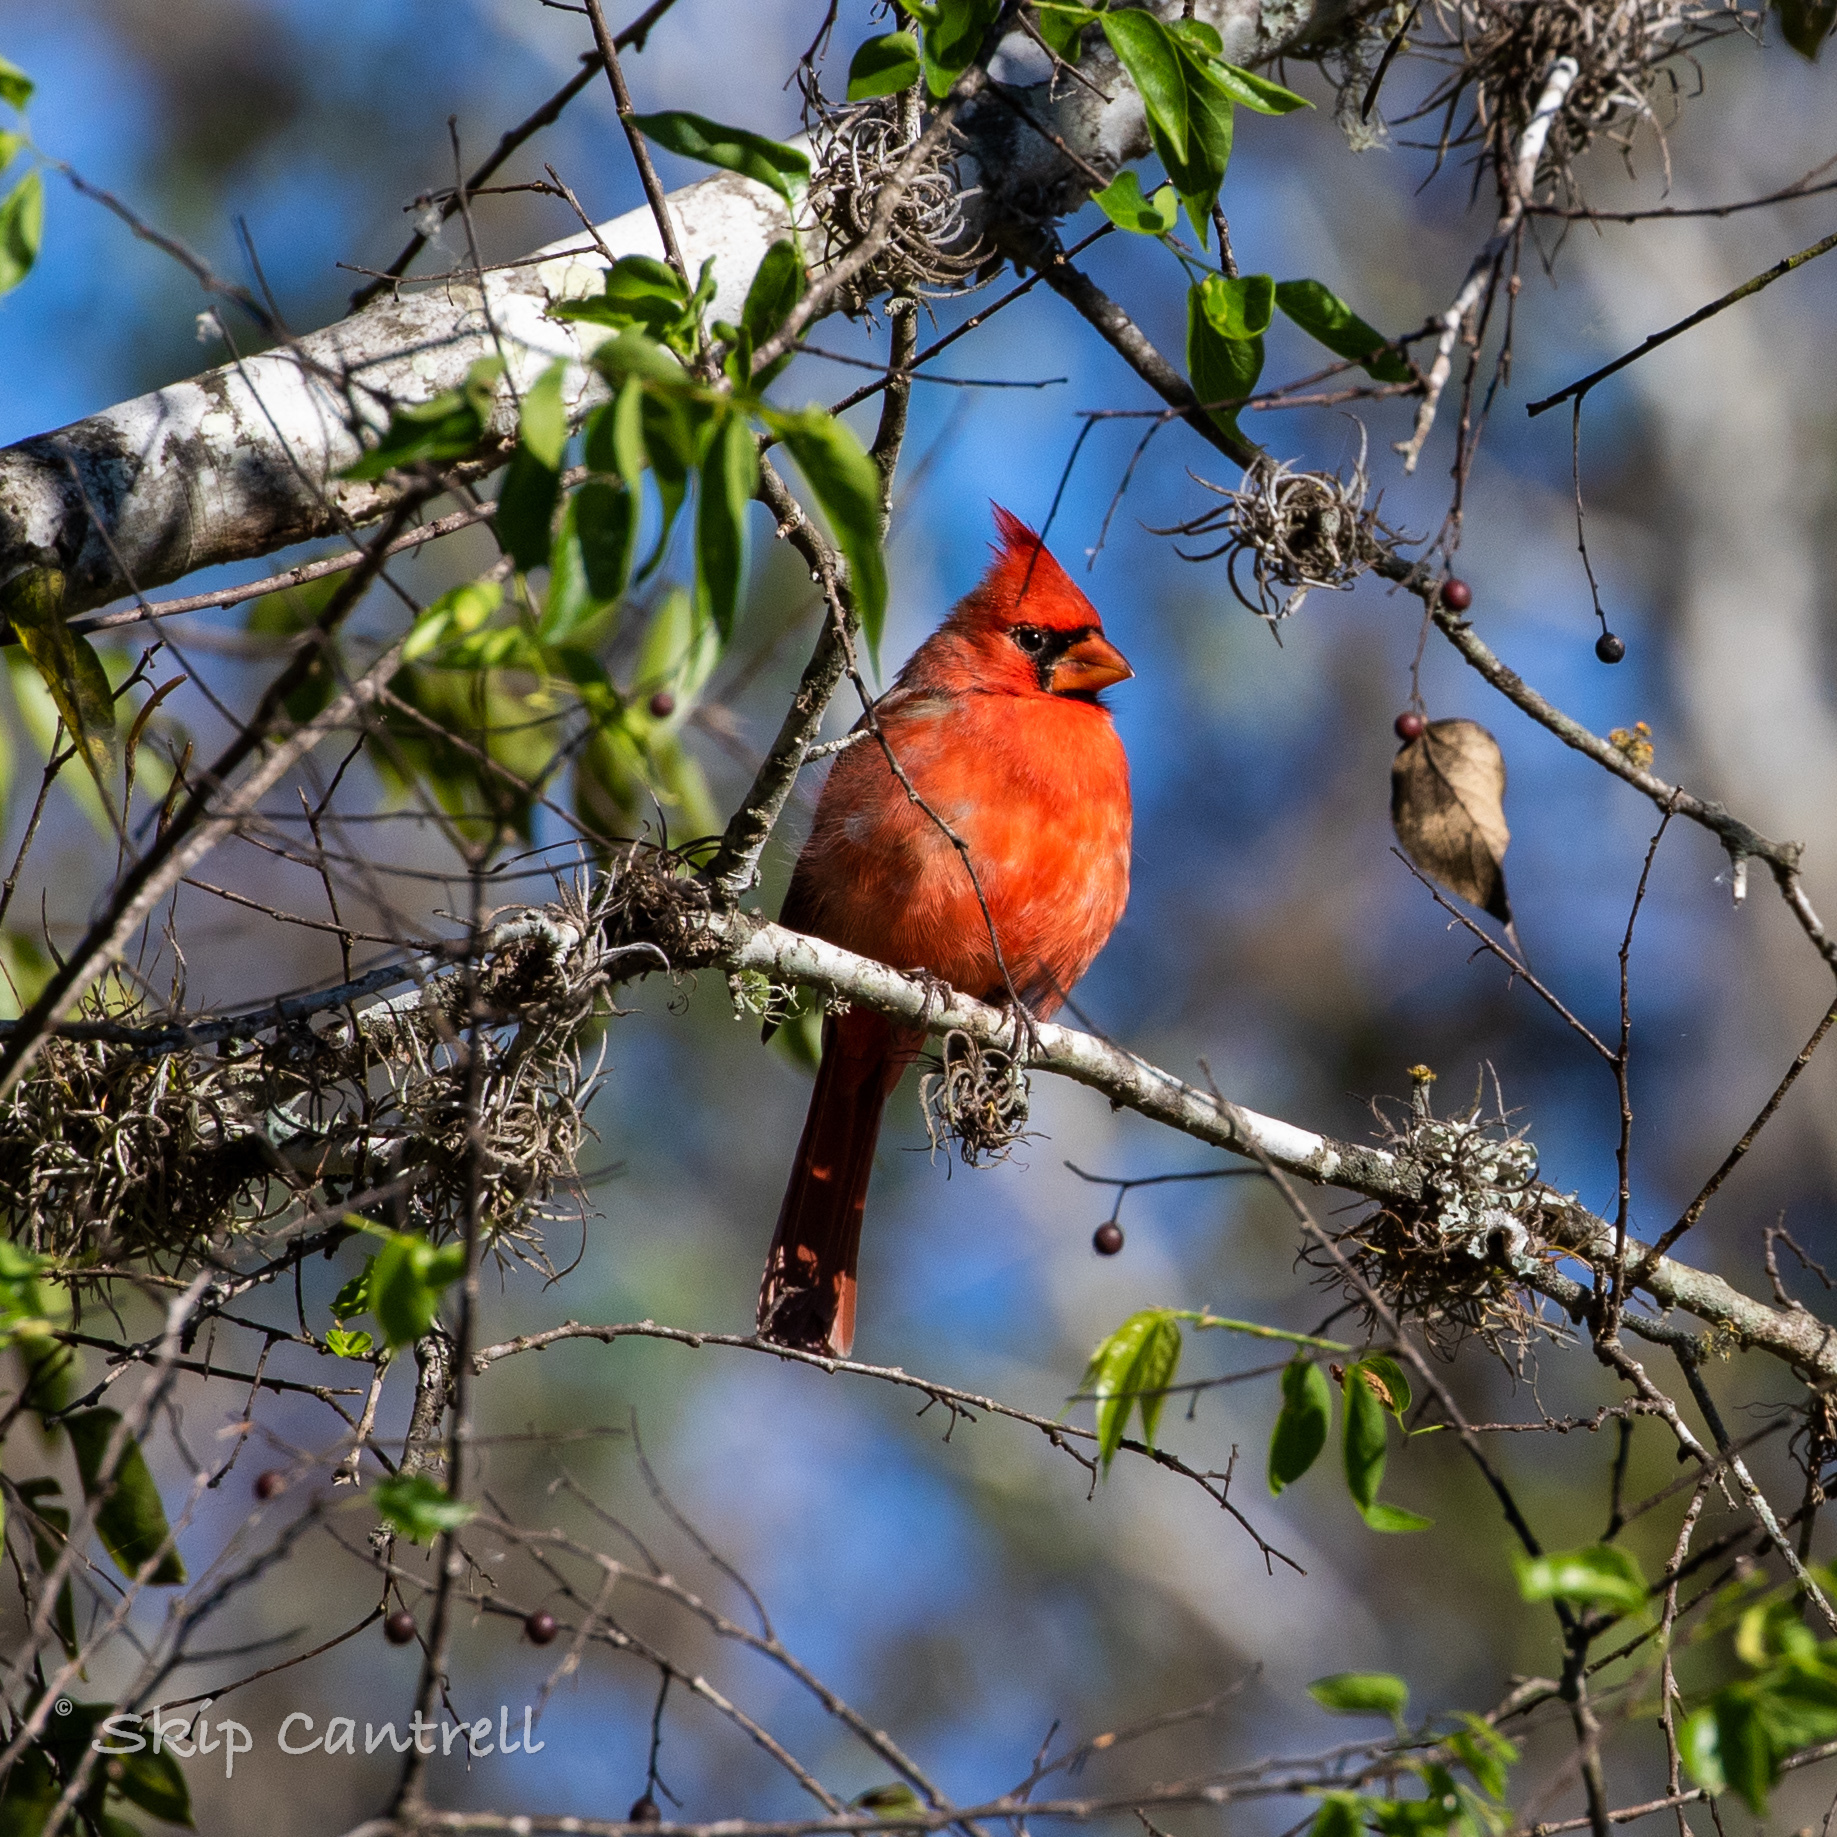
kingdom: Animalia
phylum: Chordata
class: Aves
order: Passeriformes
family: Cardinalidae
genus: Cardinalis
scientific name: Cardinalis cardinalis
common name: Northern cardinal
